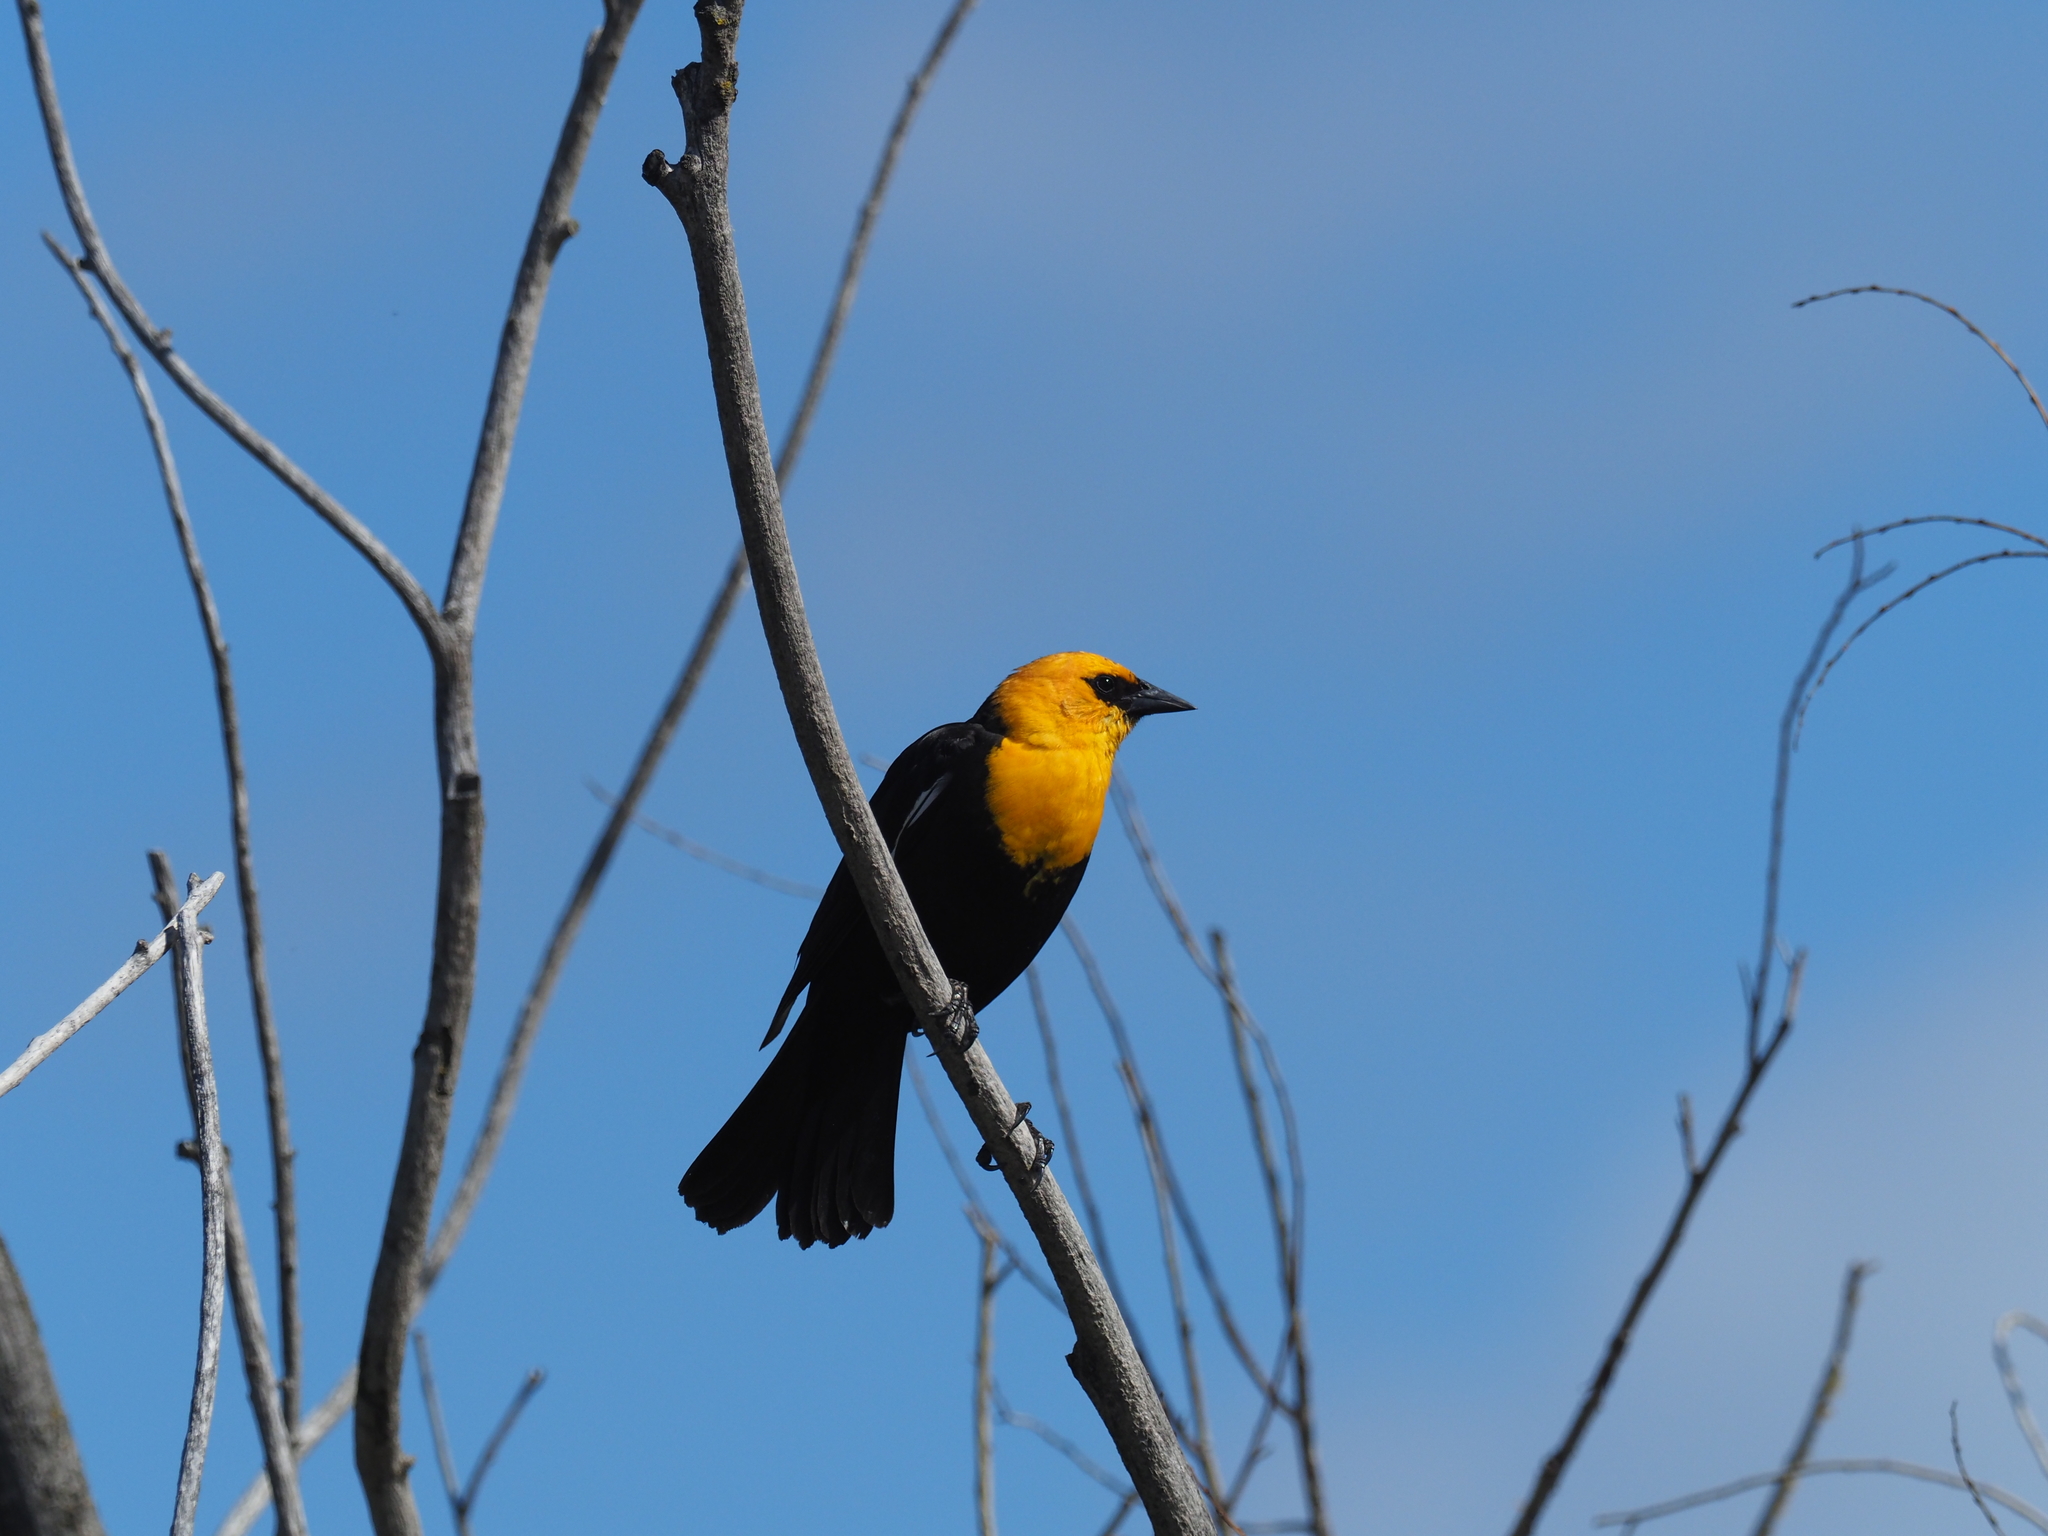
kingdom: Animalia
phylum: Chordata
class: Aves
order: Passeriformes
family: Icteridae
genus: Xanthocephalus
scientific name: Xanthocephalus xanthocephalus
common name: Yellow-headed blackbird
